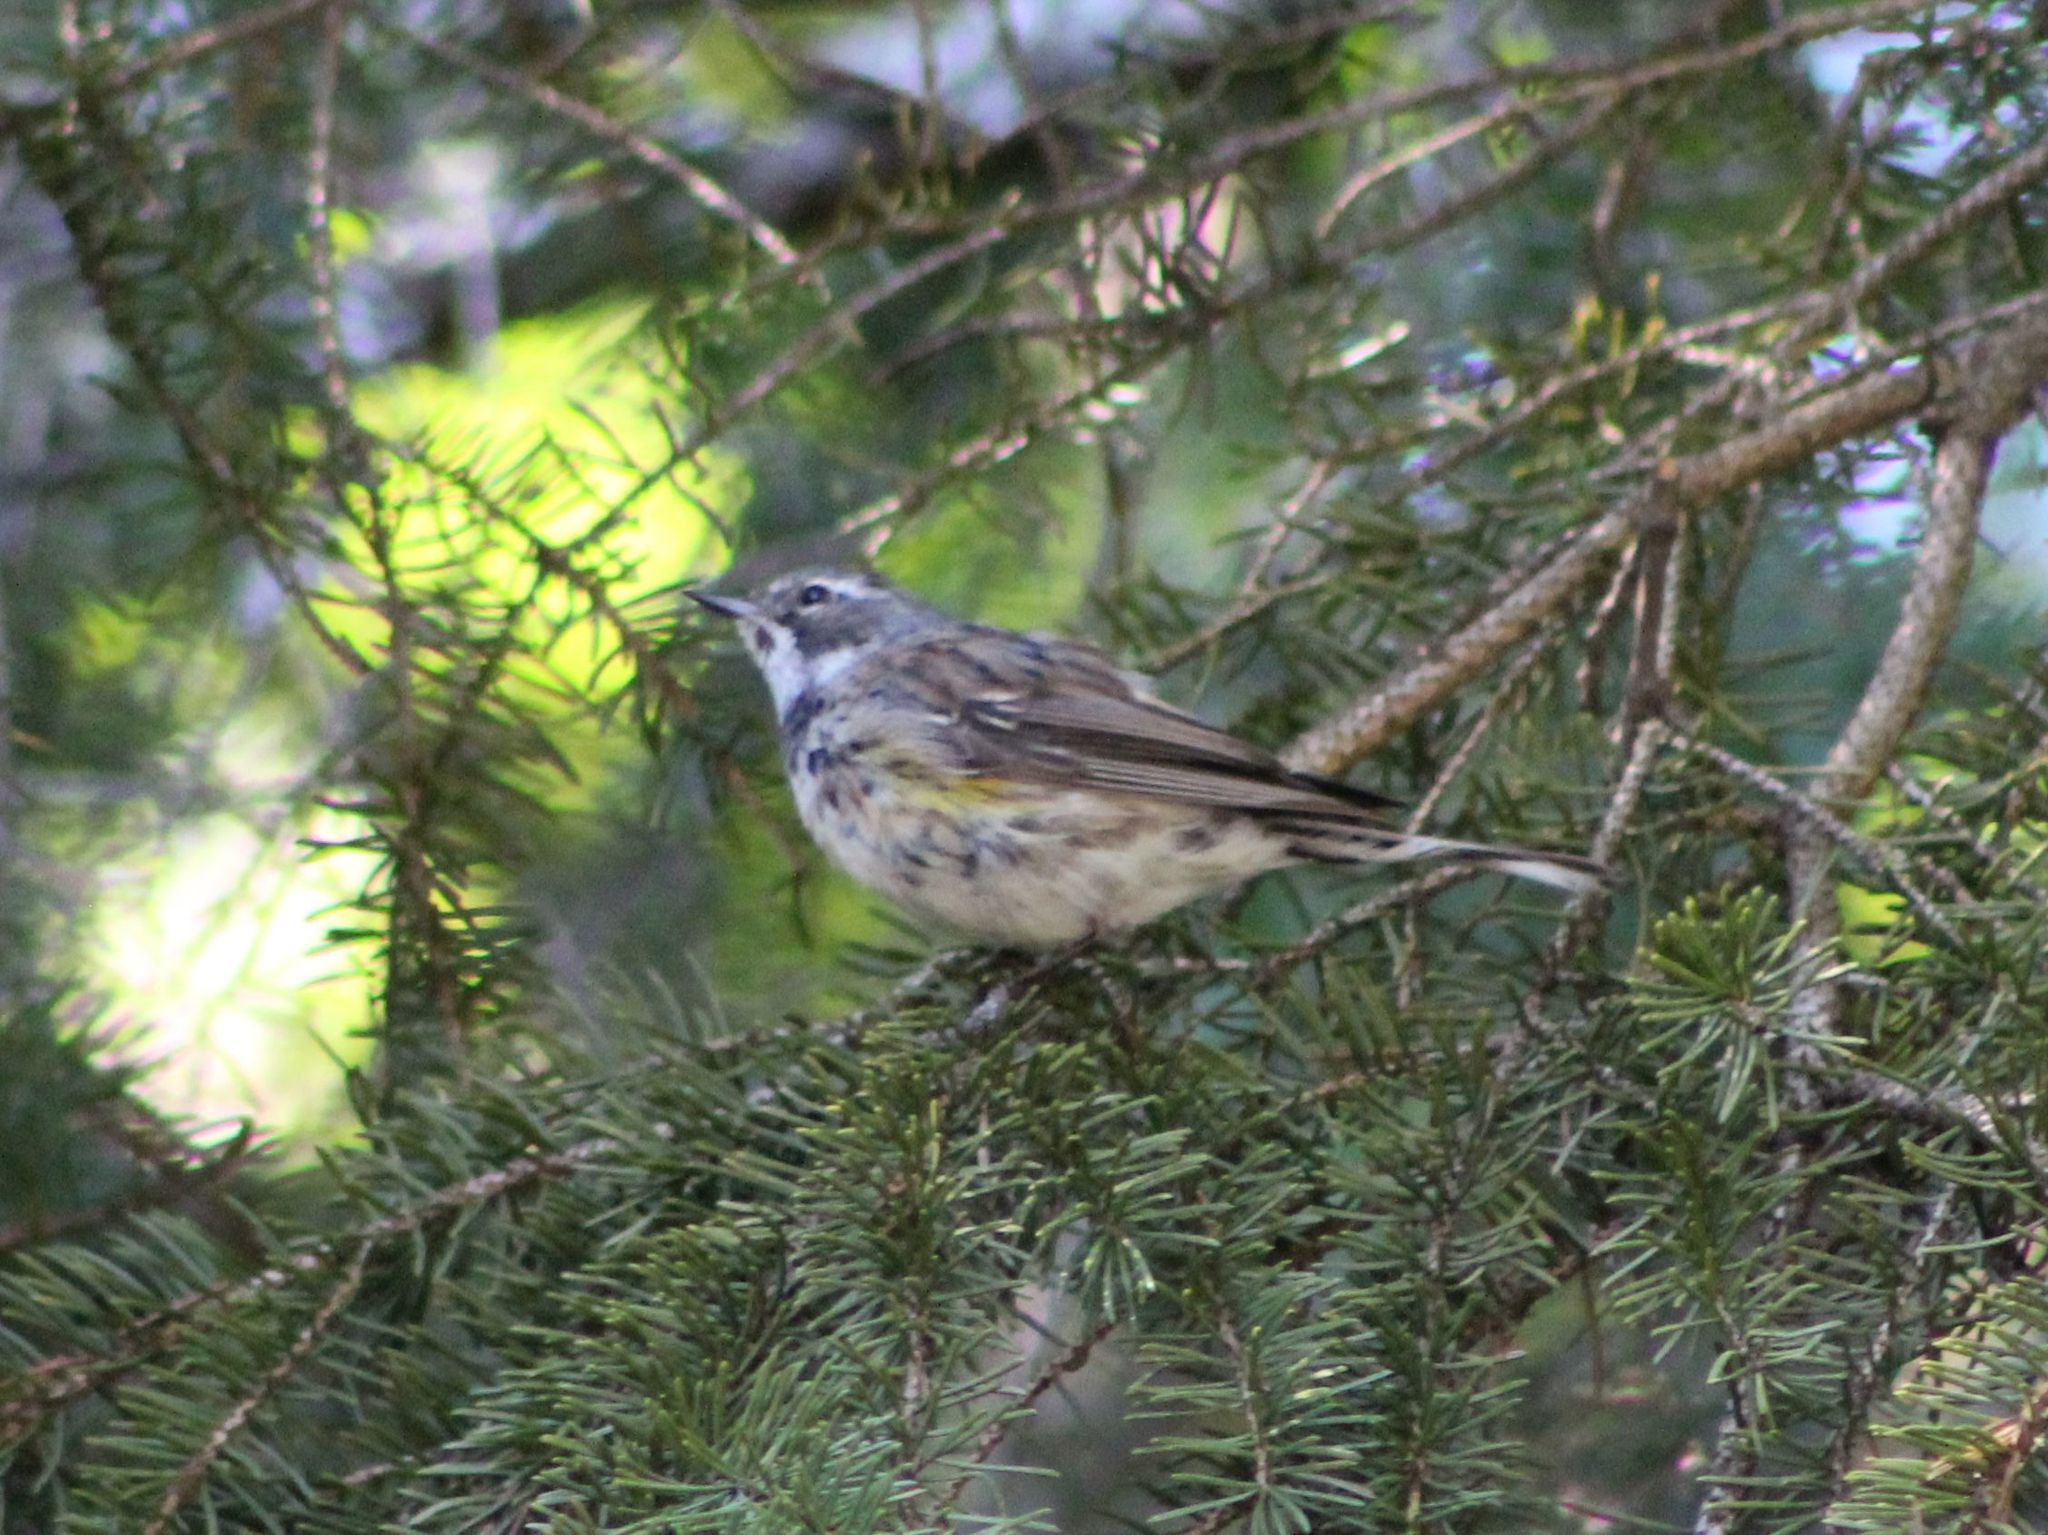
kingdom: Animalia
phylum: Chordata
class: Aves
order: Passeriformes
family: Parulidae
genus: Setophaga
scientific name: Setophaga coronata
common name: Myrtle warbler
